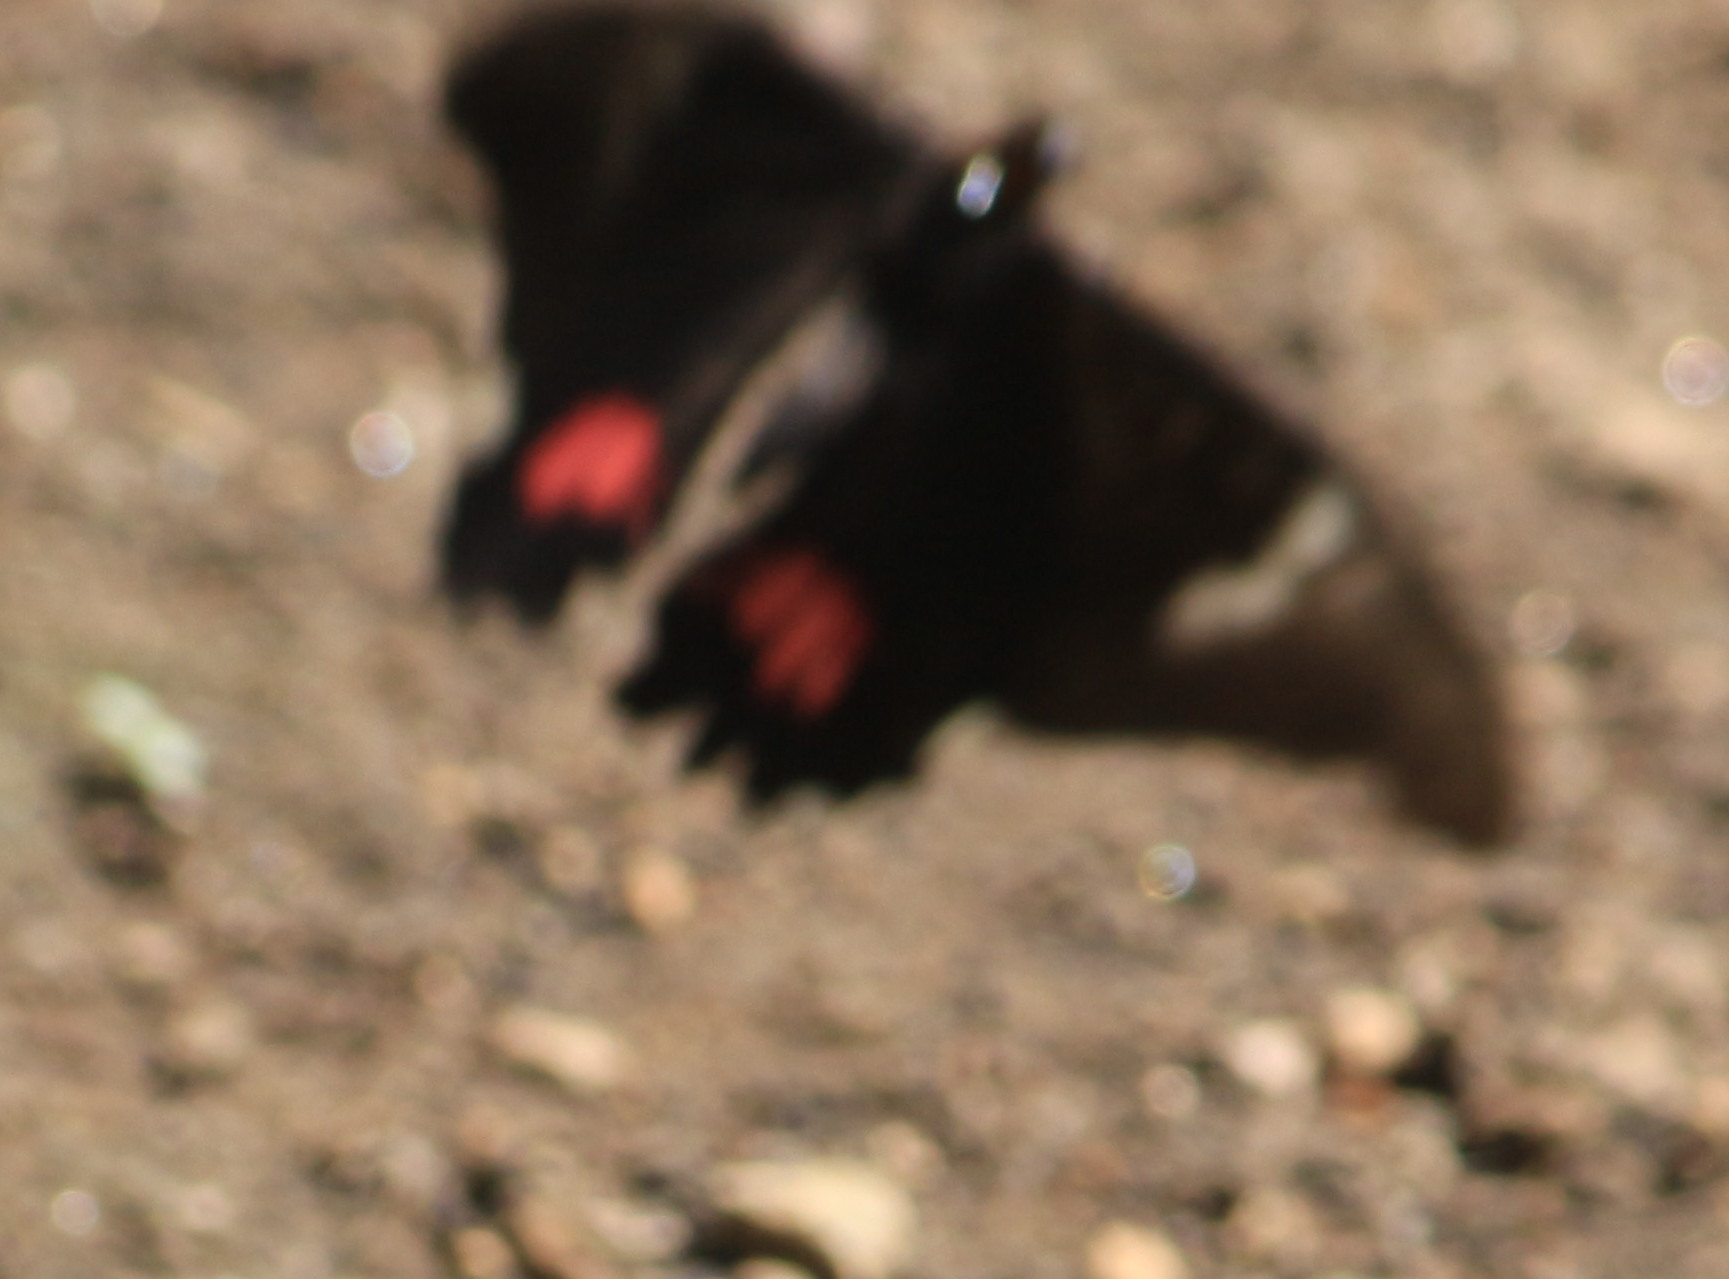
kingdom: Animalia
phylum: Arthropoda
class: Insecta
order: Lepidoptera
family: Papilionidae
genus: Papilio
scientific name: Papilio anchisiades
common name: Idaes swallowtail
